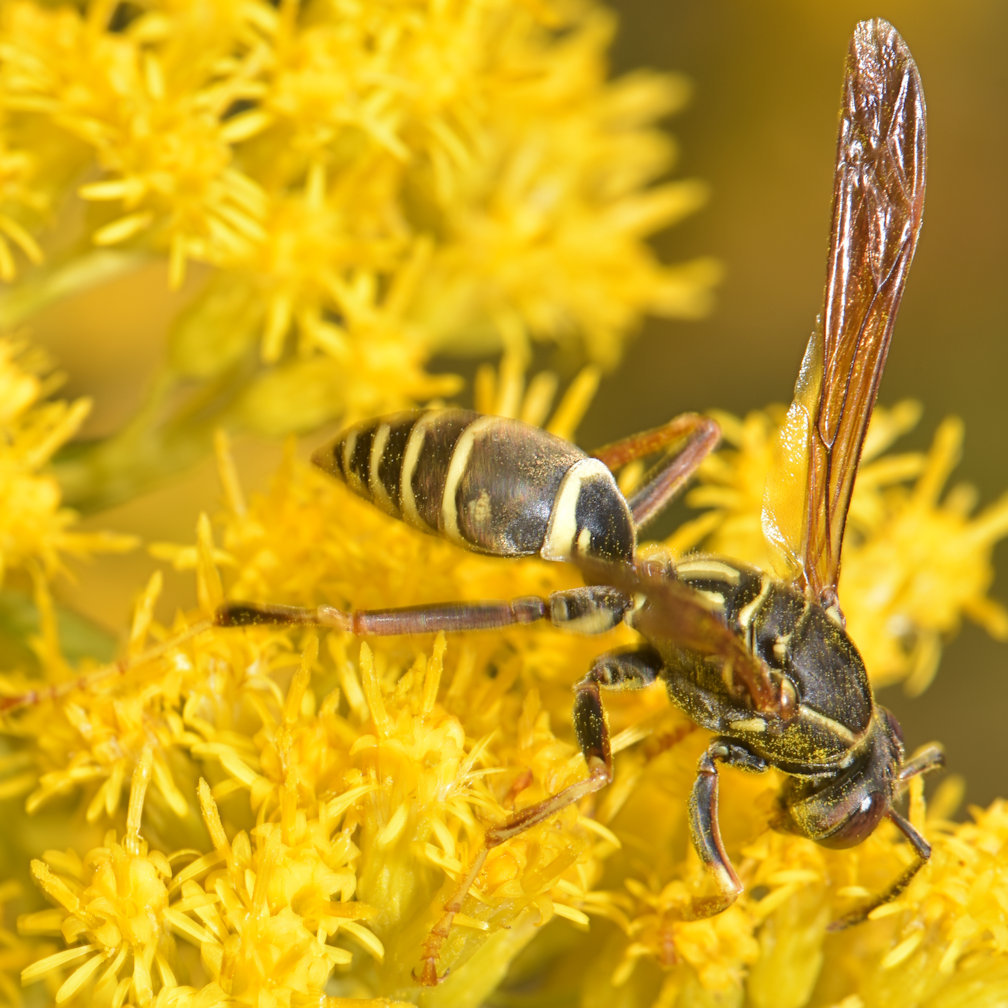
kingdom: Animalia
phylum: Arthropoda
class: Insecta
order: Hymenoptera
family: Eumenidae
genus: Polistes
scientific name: Polistes fuscatus
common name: Dark paper wasp
